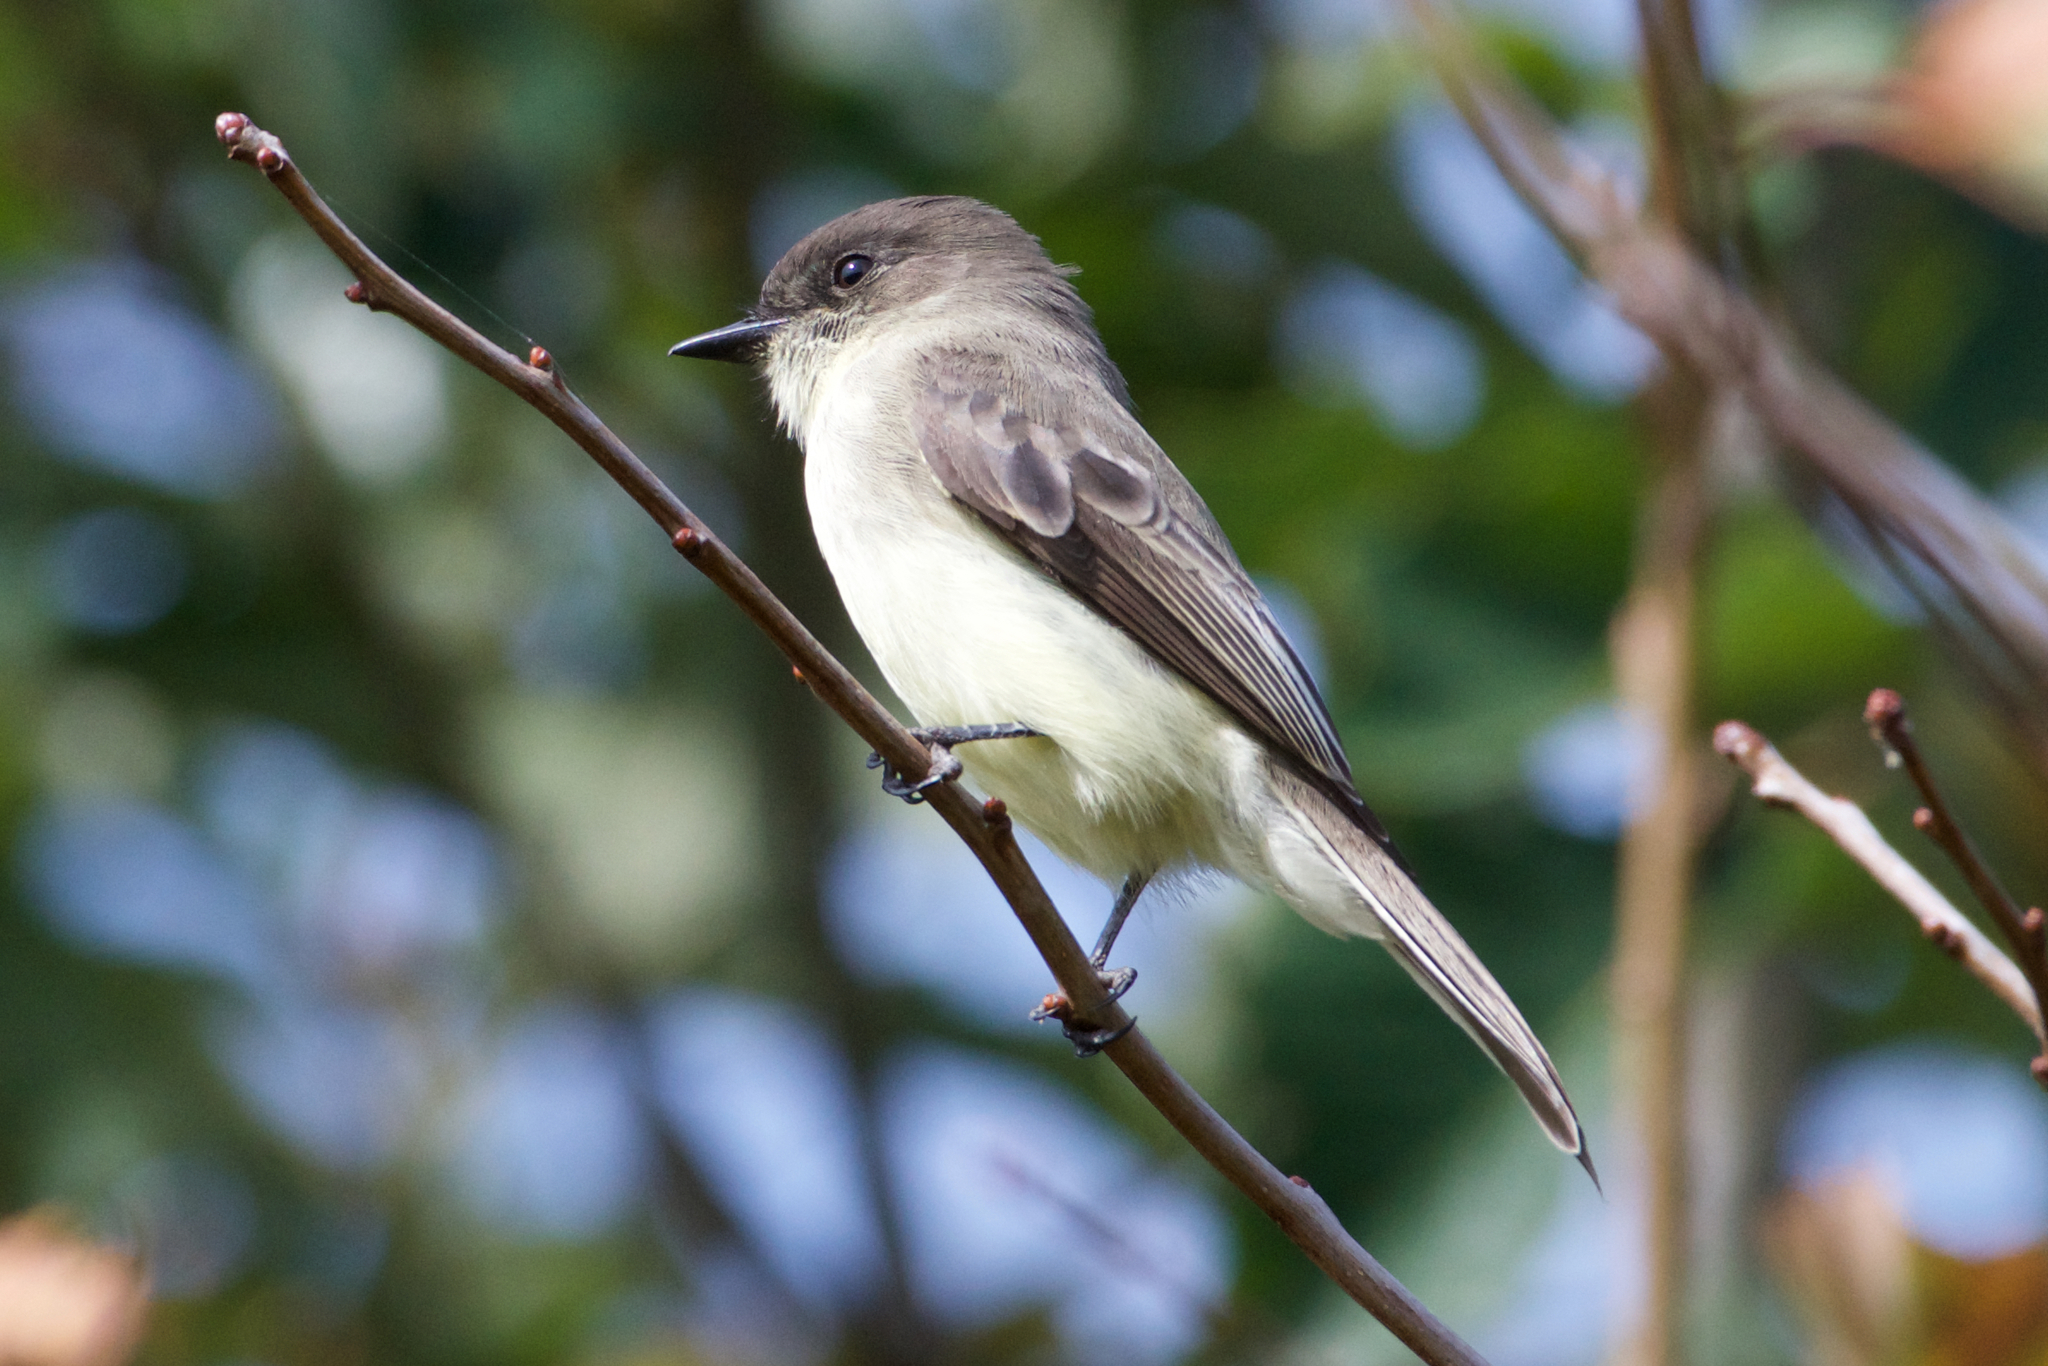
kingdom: Animalia
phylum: Chordata
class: Aves
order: Passeriformes
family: Tyrannidae
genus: Sayornis
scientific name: Sayornis phoebe
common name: Eastern phoebe
